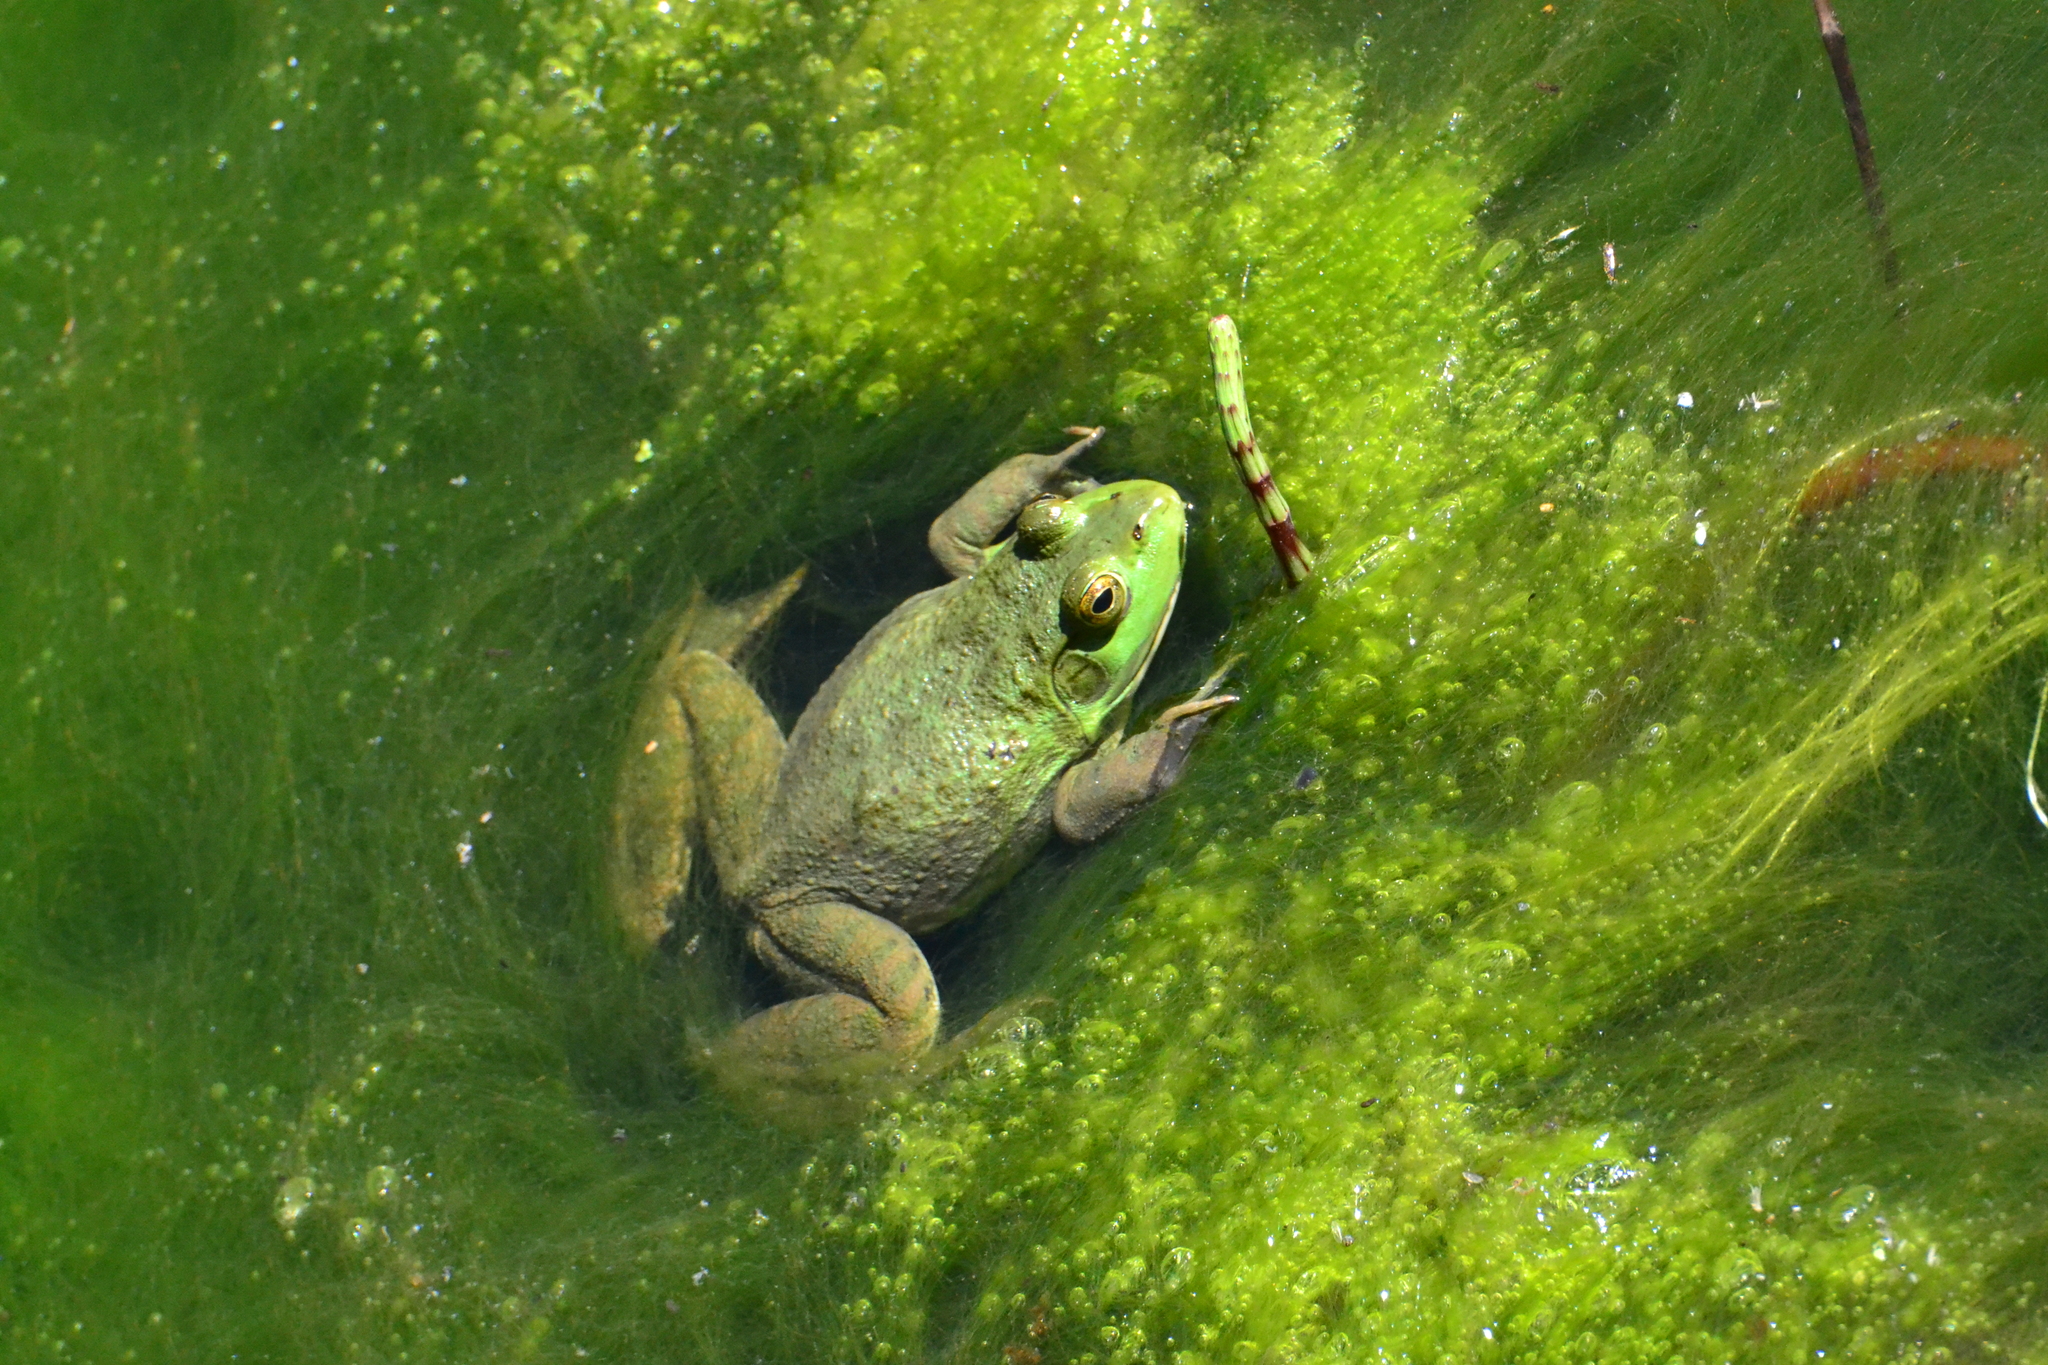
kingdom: Animalia
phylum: Chordata
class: Amphibia
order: Anura
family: Ranidae
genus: Lithobates
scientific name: Lithobates catesbeianus
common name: American bullfrog
